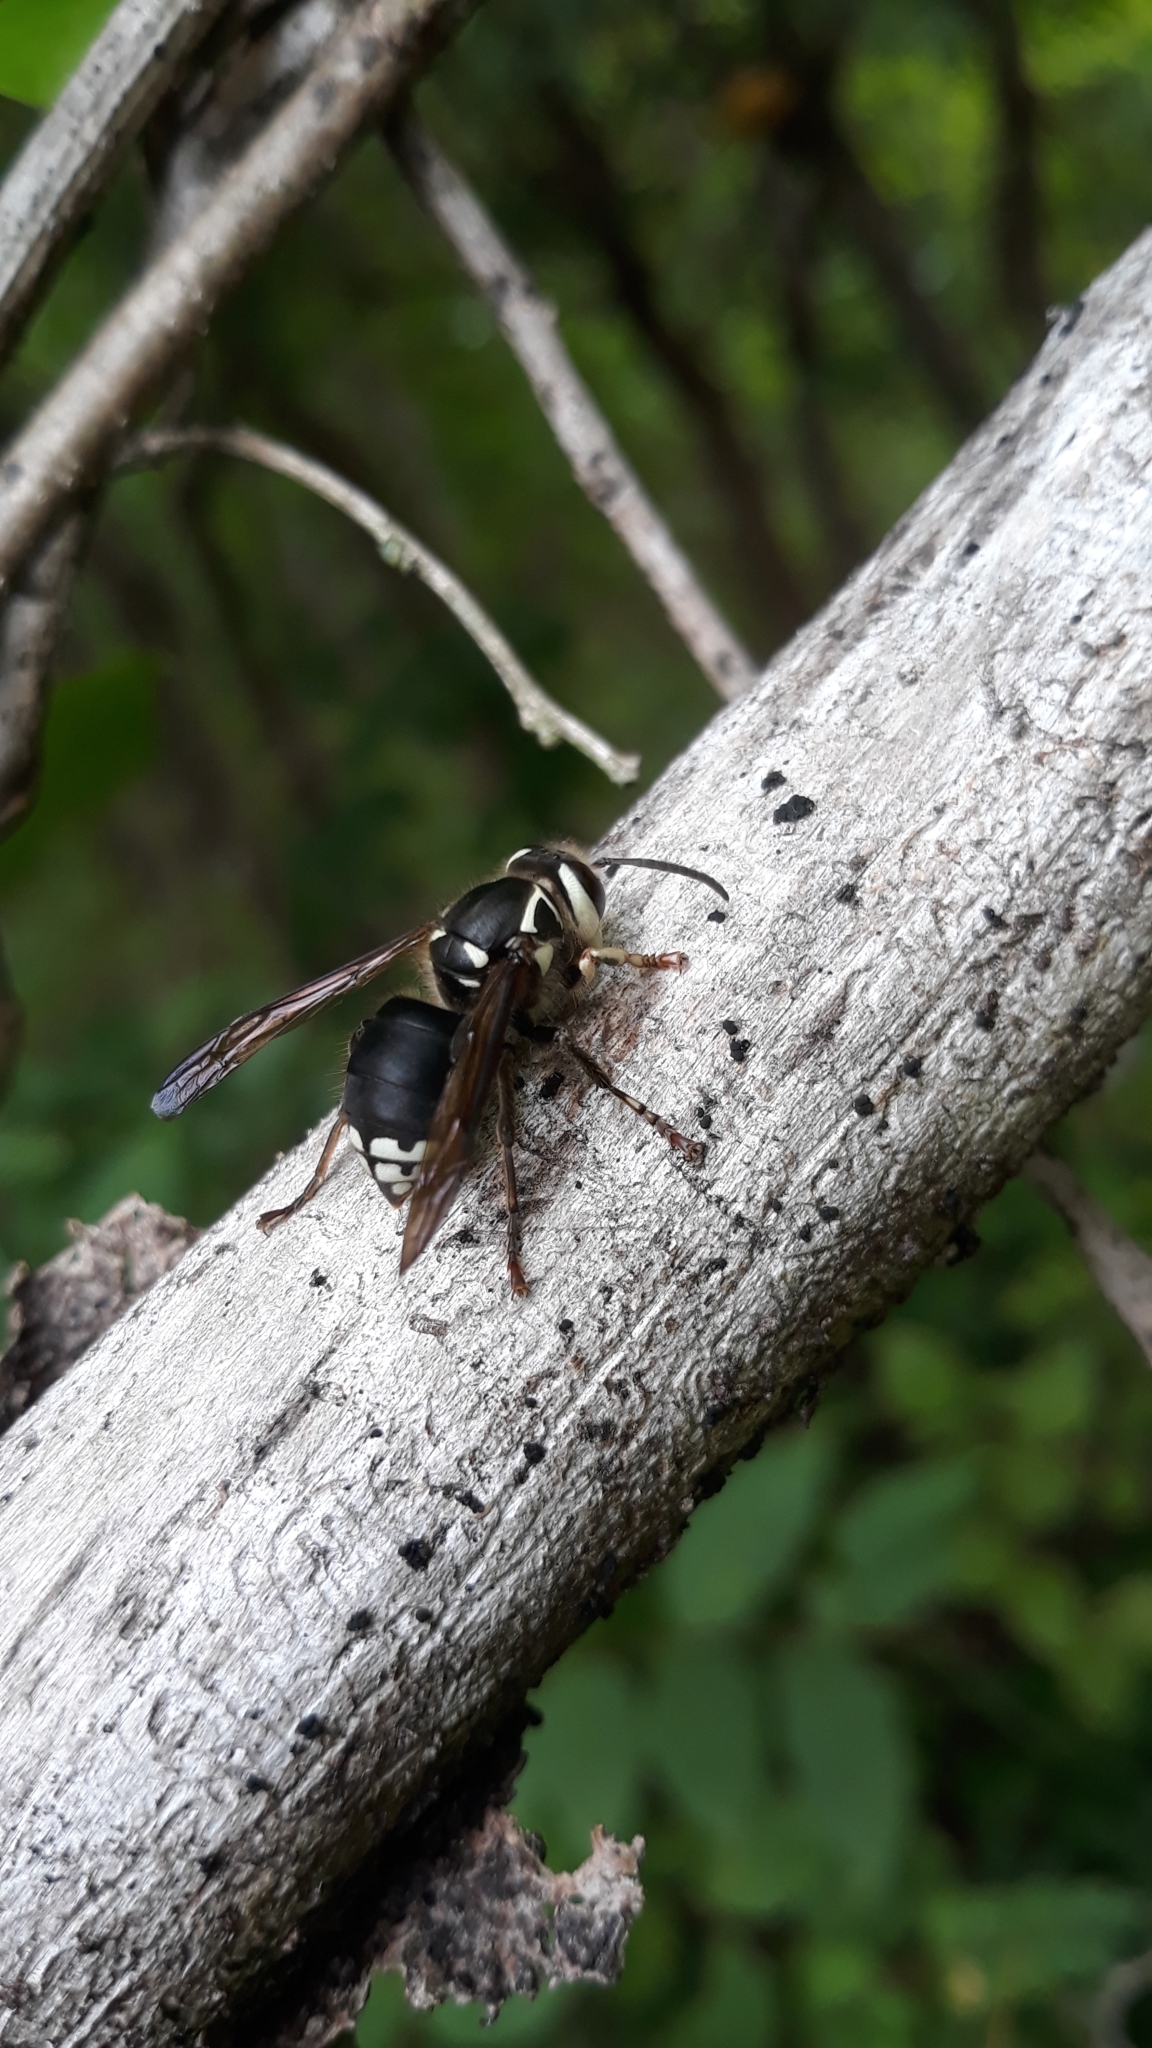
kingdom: Animalia
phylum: Arthropoda
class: Insecta
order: Hymenoptera
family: Vespidae
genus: Dolichovespula
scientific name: Dolichovespula maculata
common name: Bald-faced hornet
